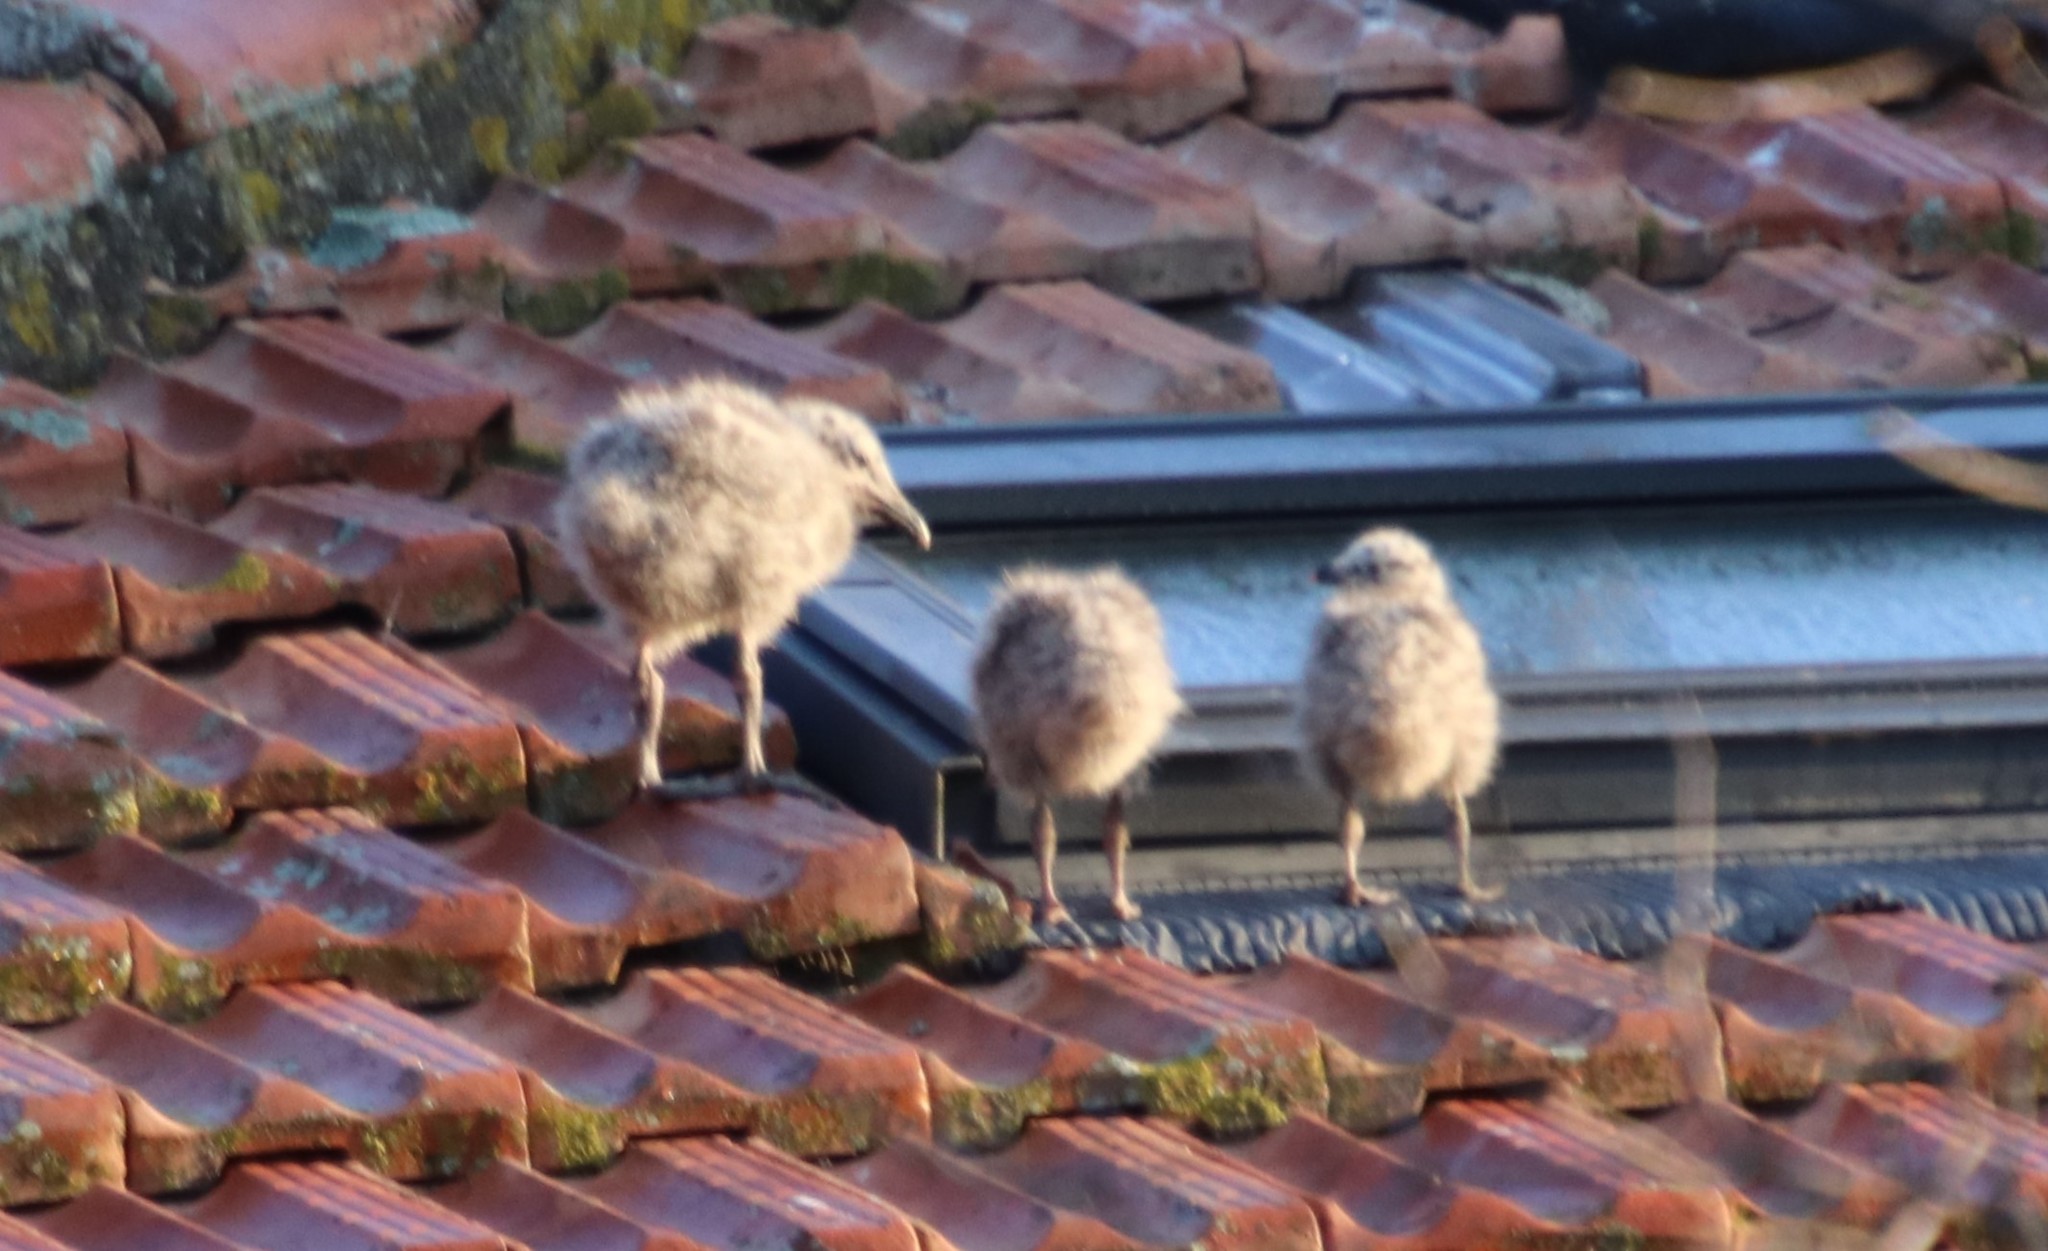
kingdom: Animalia
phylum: Chordata
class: Aves
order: Charadriiformes
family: Laridae
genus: Larus
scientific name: Larus michahellis
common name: Yellow-legged gull
